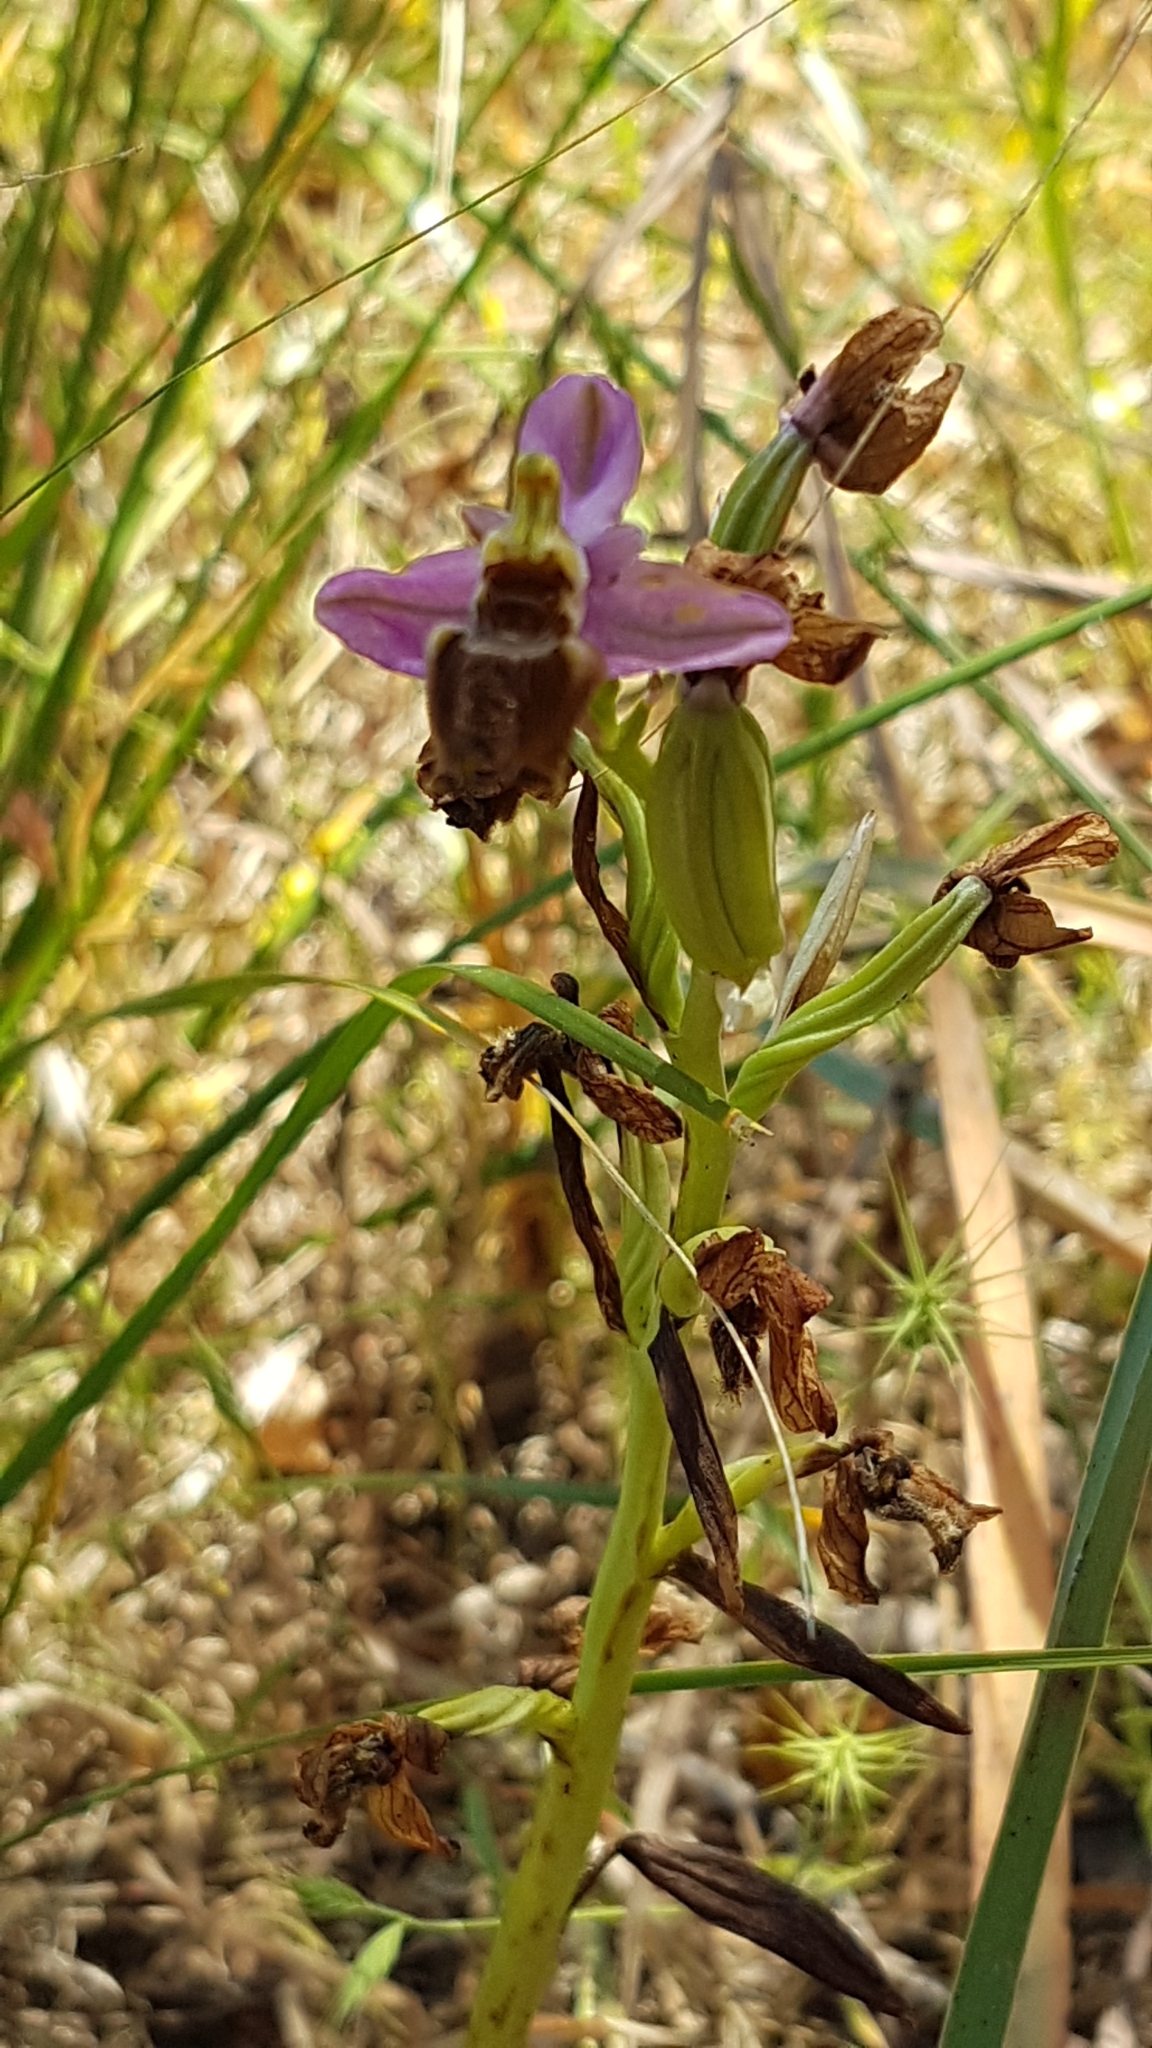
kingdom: Plantae
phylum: Tracheophyta
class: Liliopsida
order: Asparagales
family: Orchidaceae
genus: Ophrys
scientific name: Ophrys tenthredinifera
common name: Sawfly orchid
